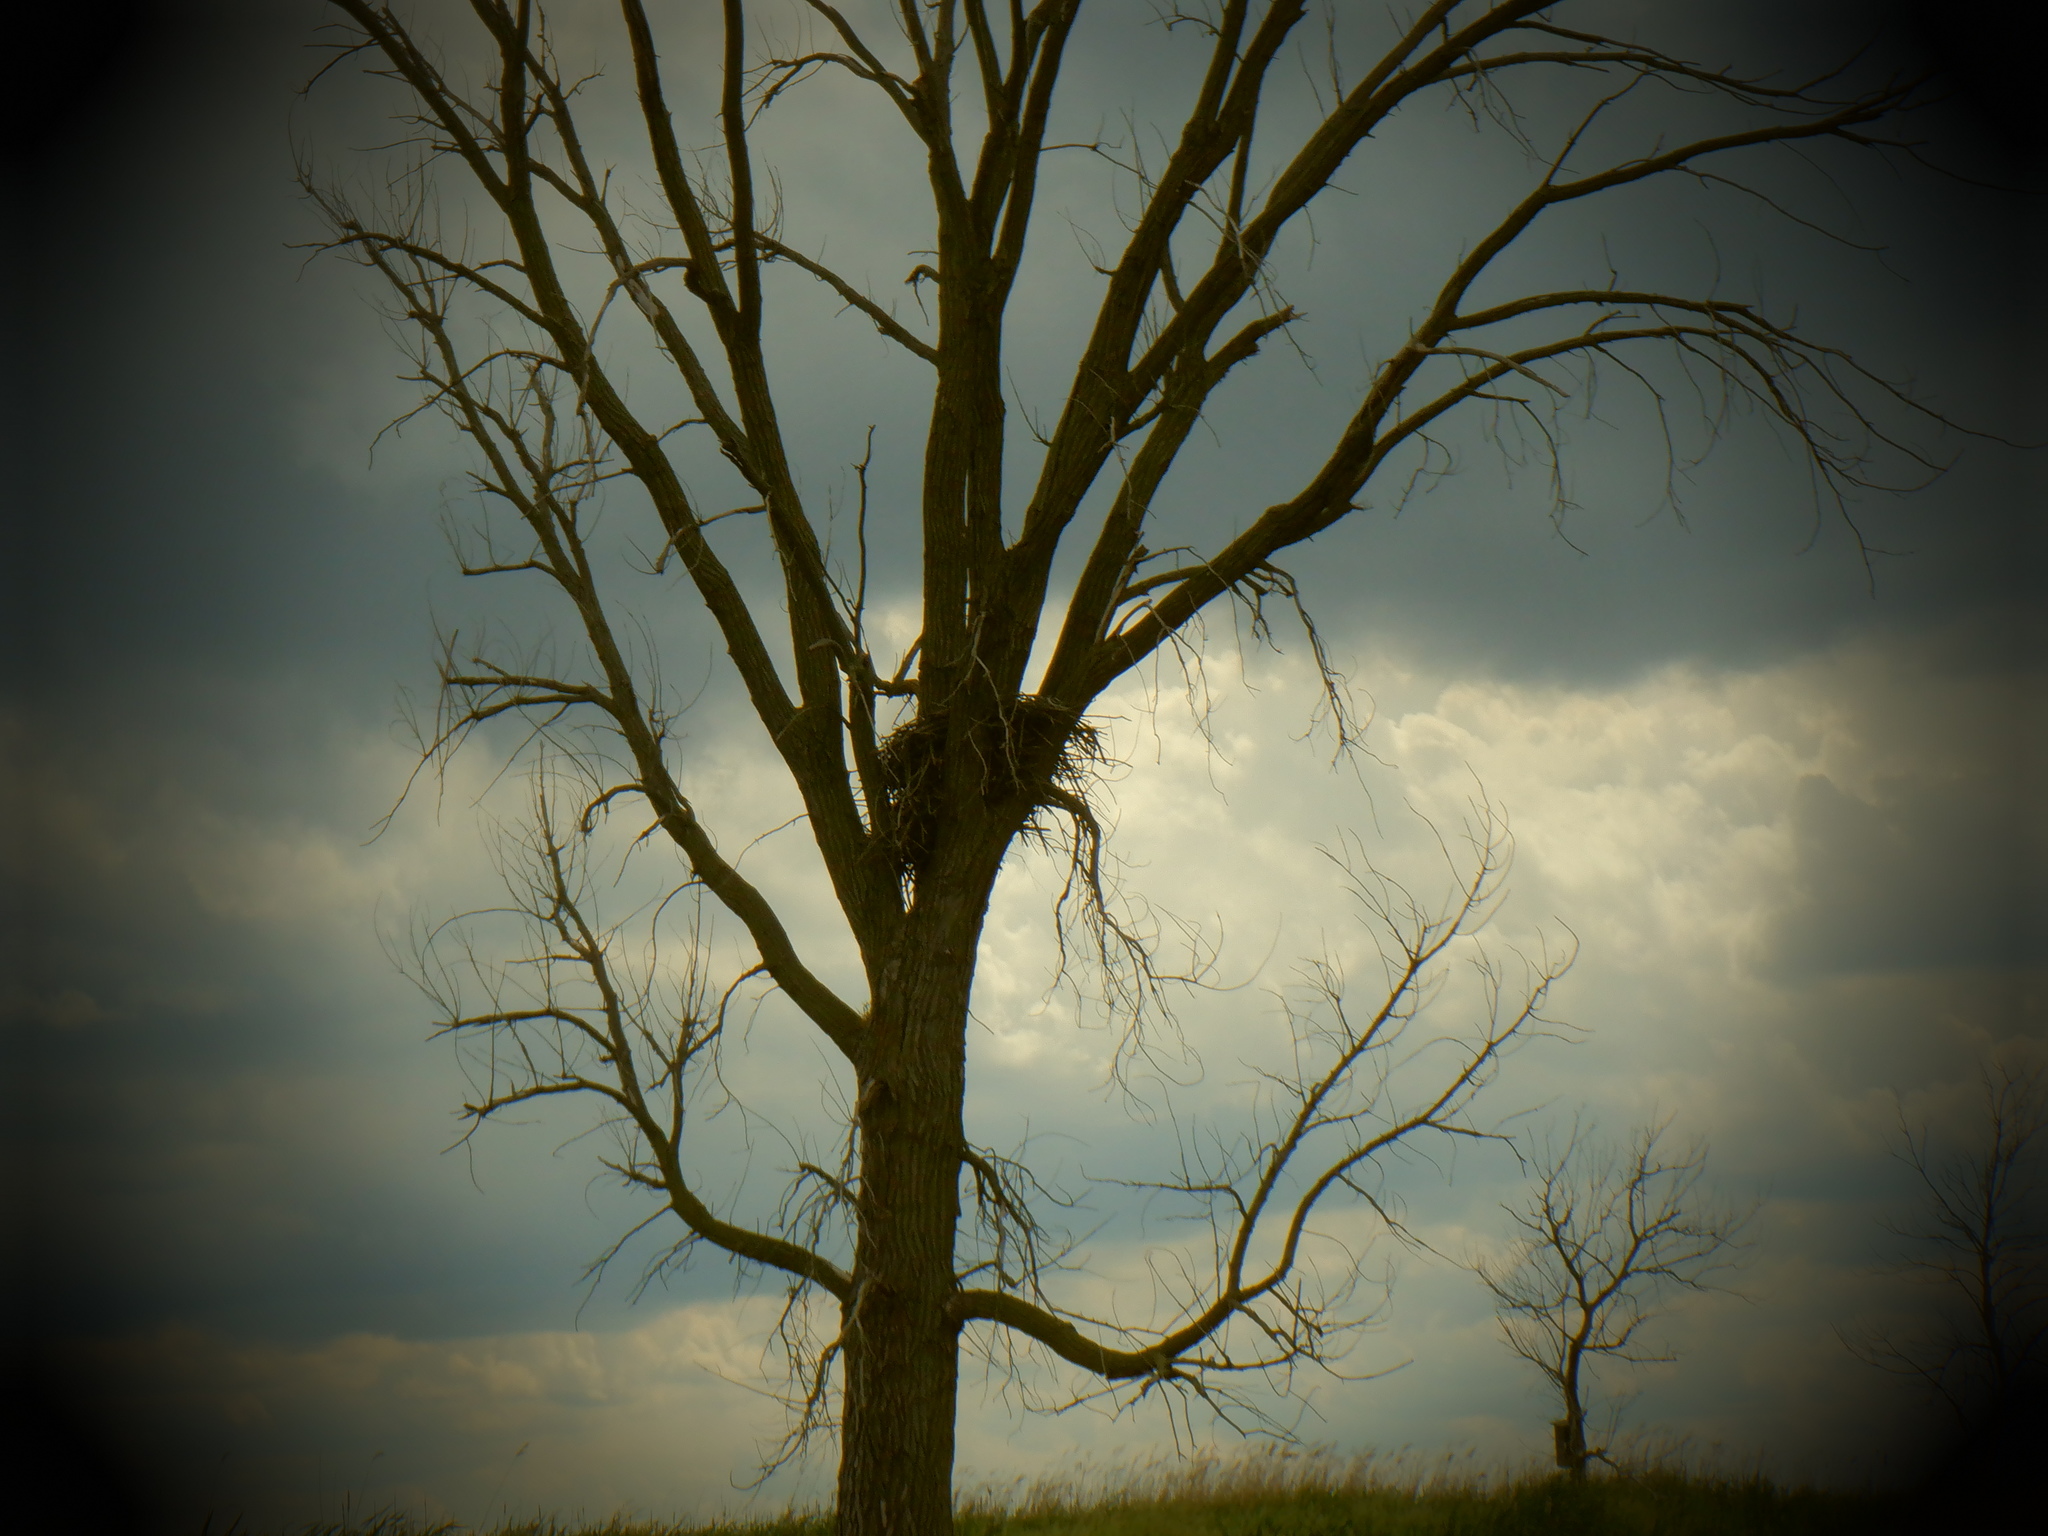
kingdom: Plantae
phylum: Tracheophyta
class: Magnoliopsida
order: Malpighiales
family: Salicaceae
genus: Populus
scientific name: Populus deltoides
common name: Eastern cottonwood
